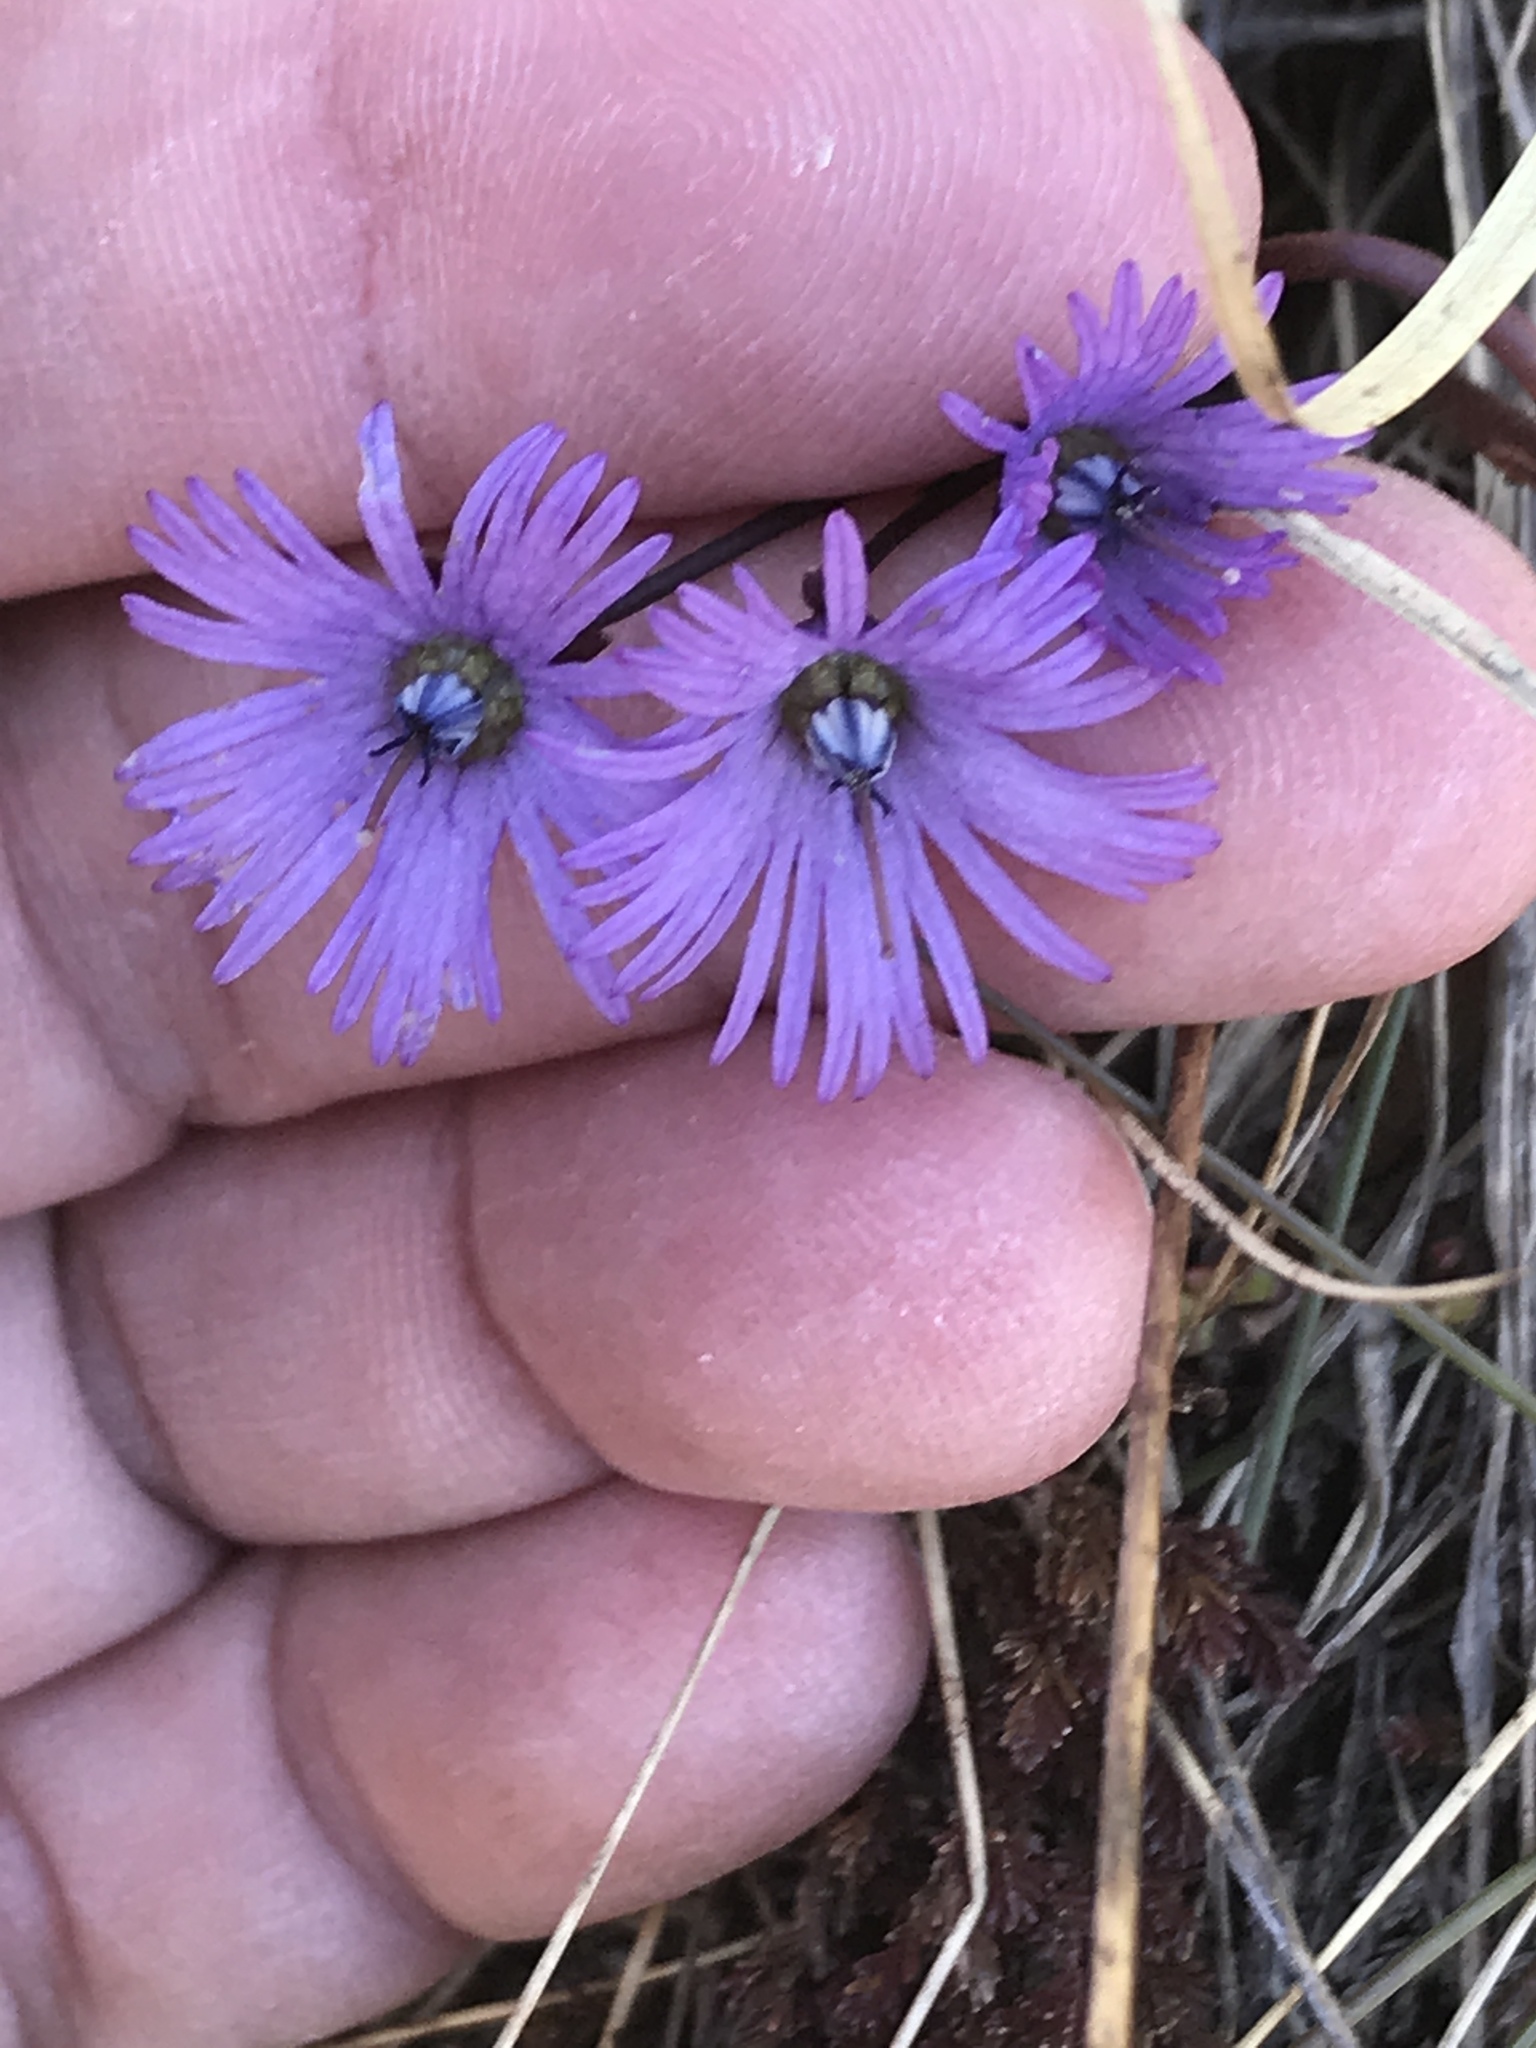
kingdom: Plantae
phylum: Tracheophyta
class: Magnoliopsida
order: Ericales
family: Primulaceae
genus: Soldanella
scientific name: Soldanella alpina
